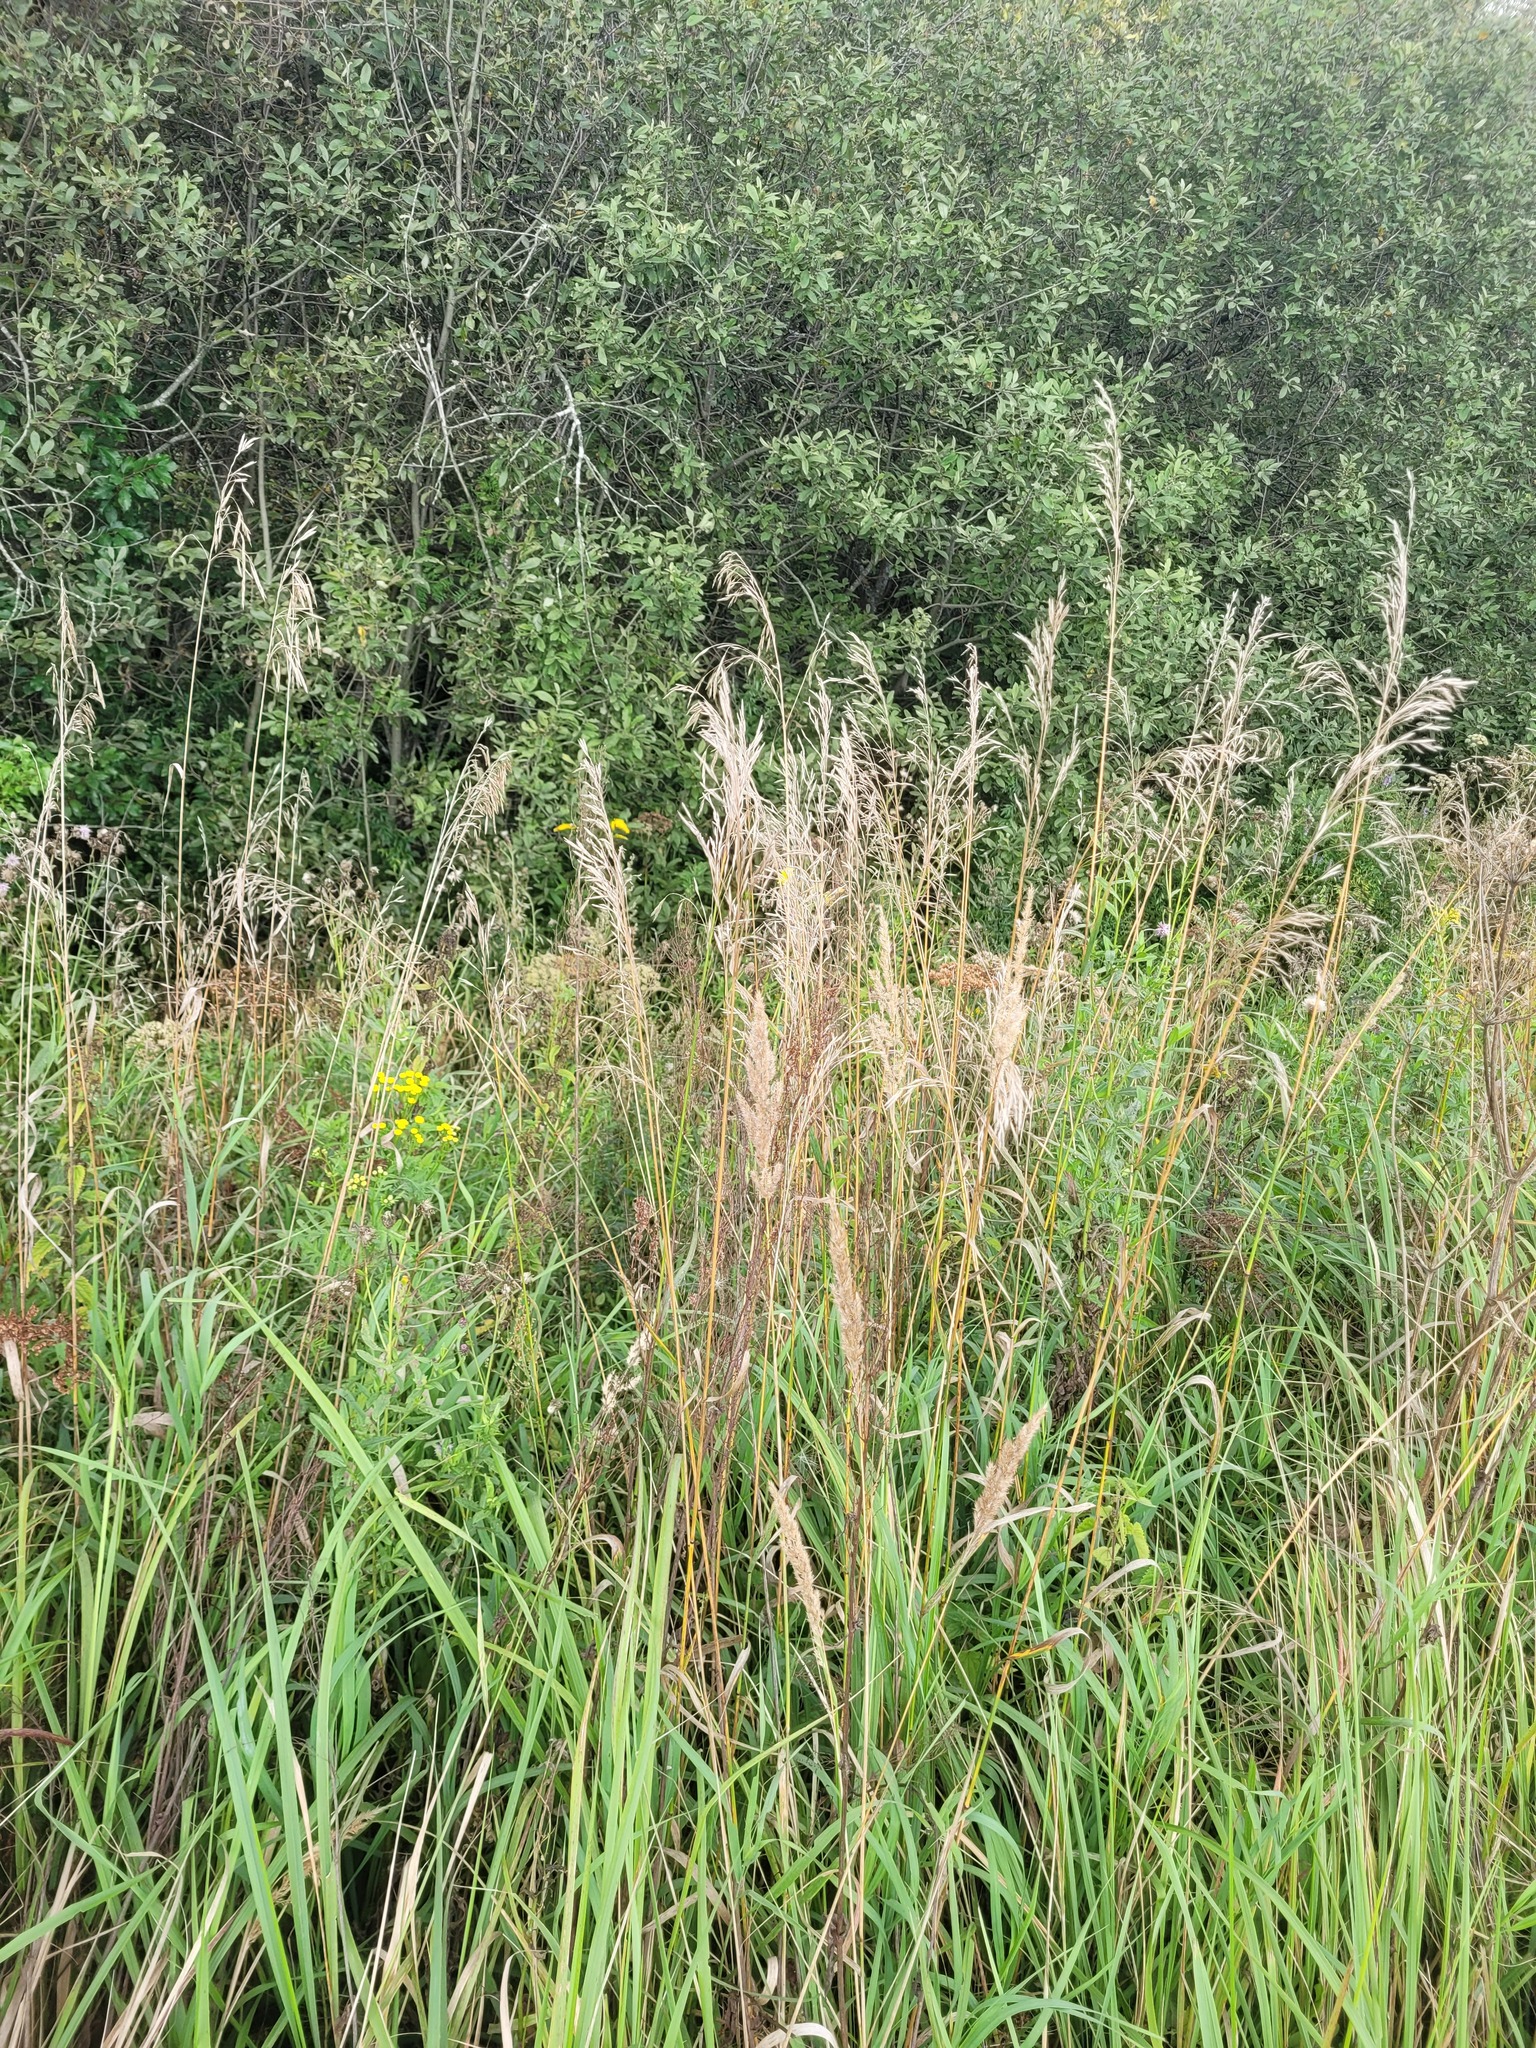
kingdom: Plantae
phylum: Tracheophyta
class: Liliopsida
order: Poales
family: Poaceae
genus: Bromus
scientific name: Bromus inermis
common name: Smooth brome
